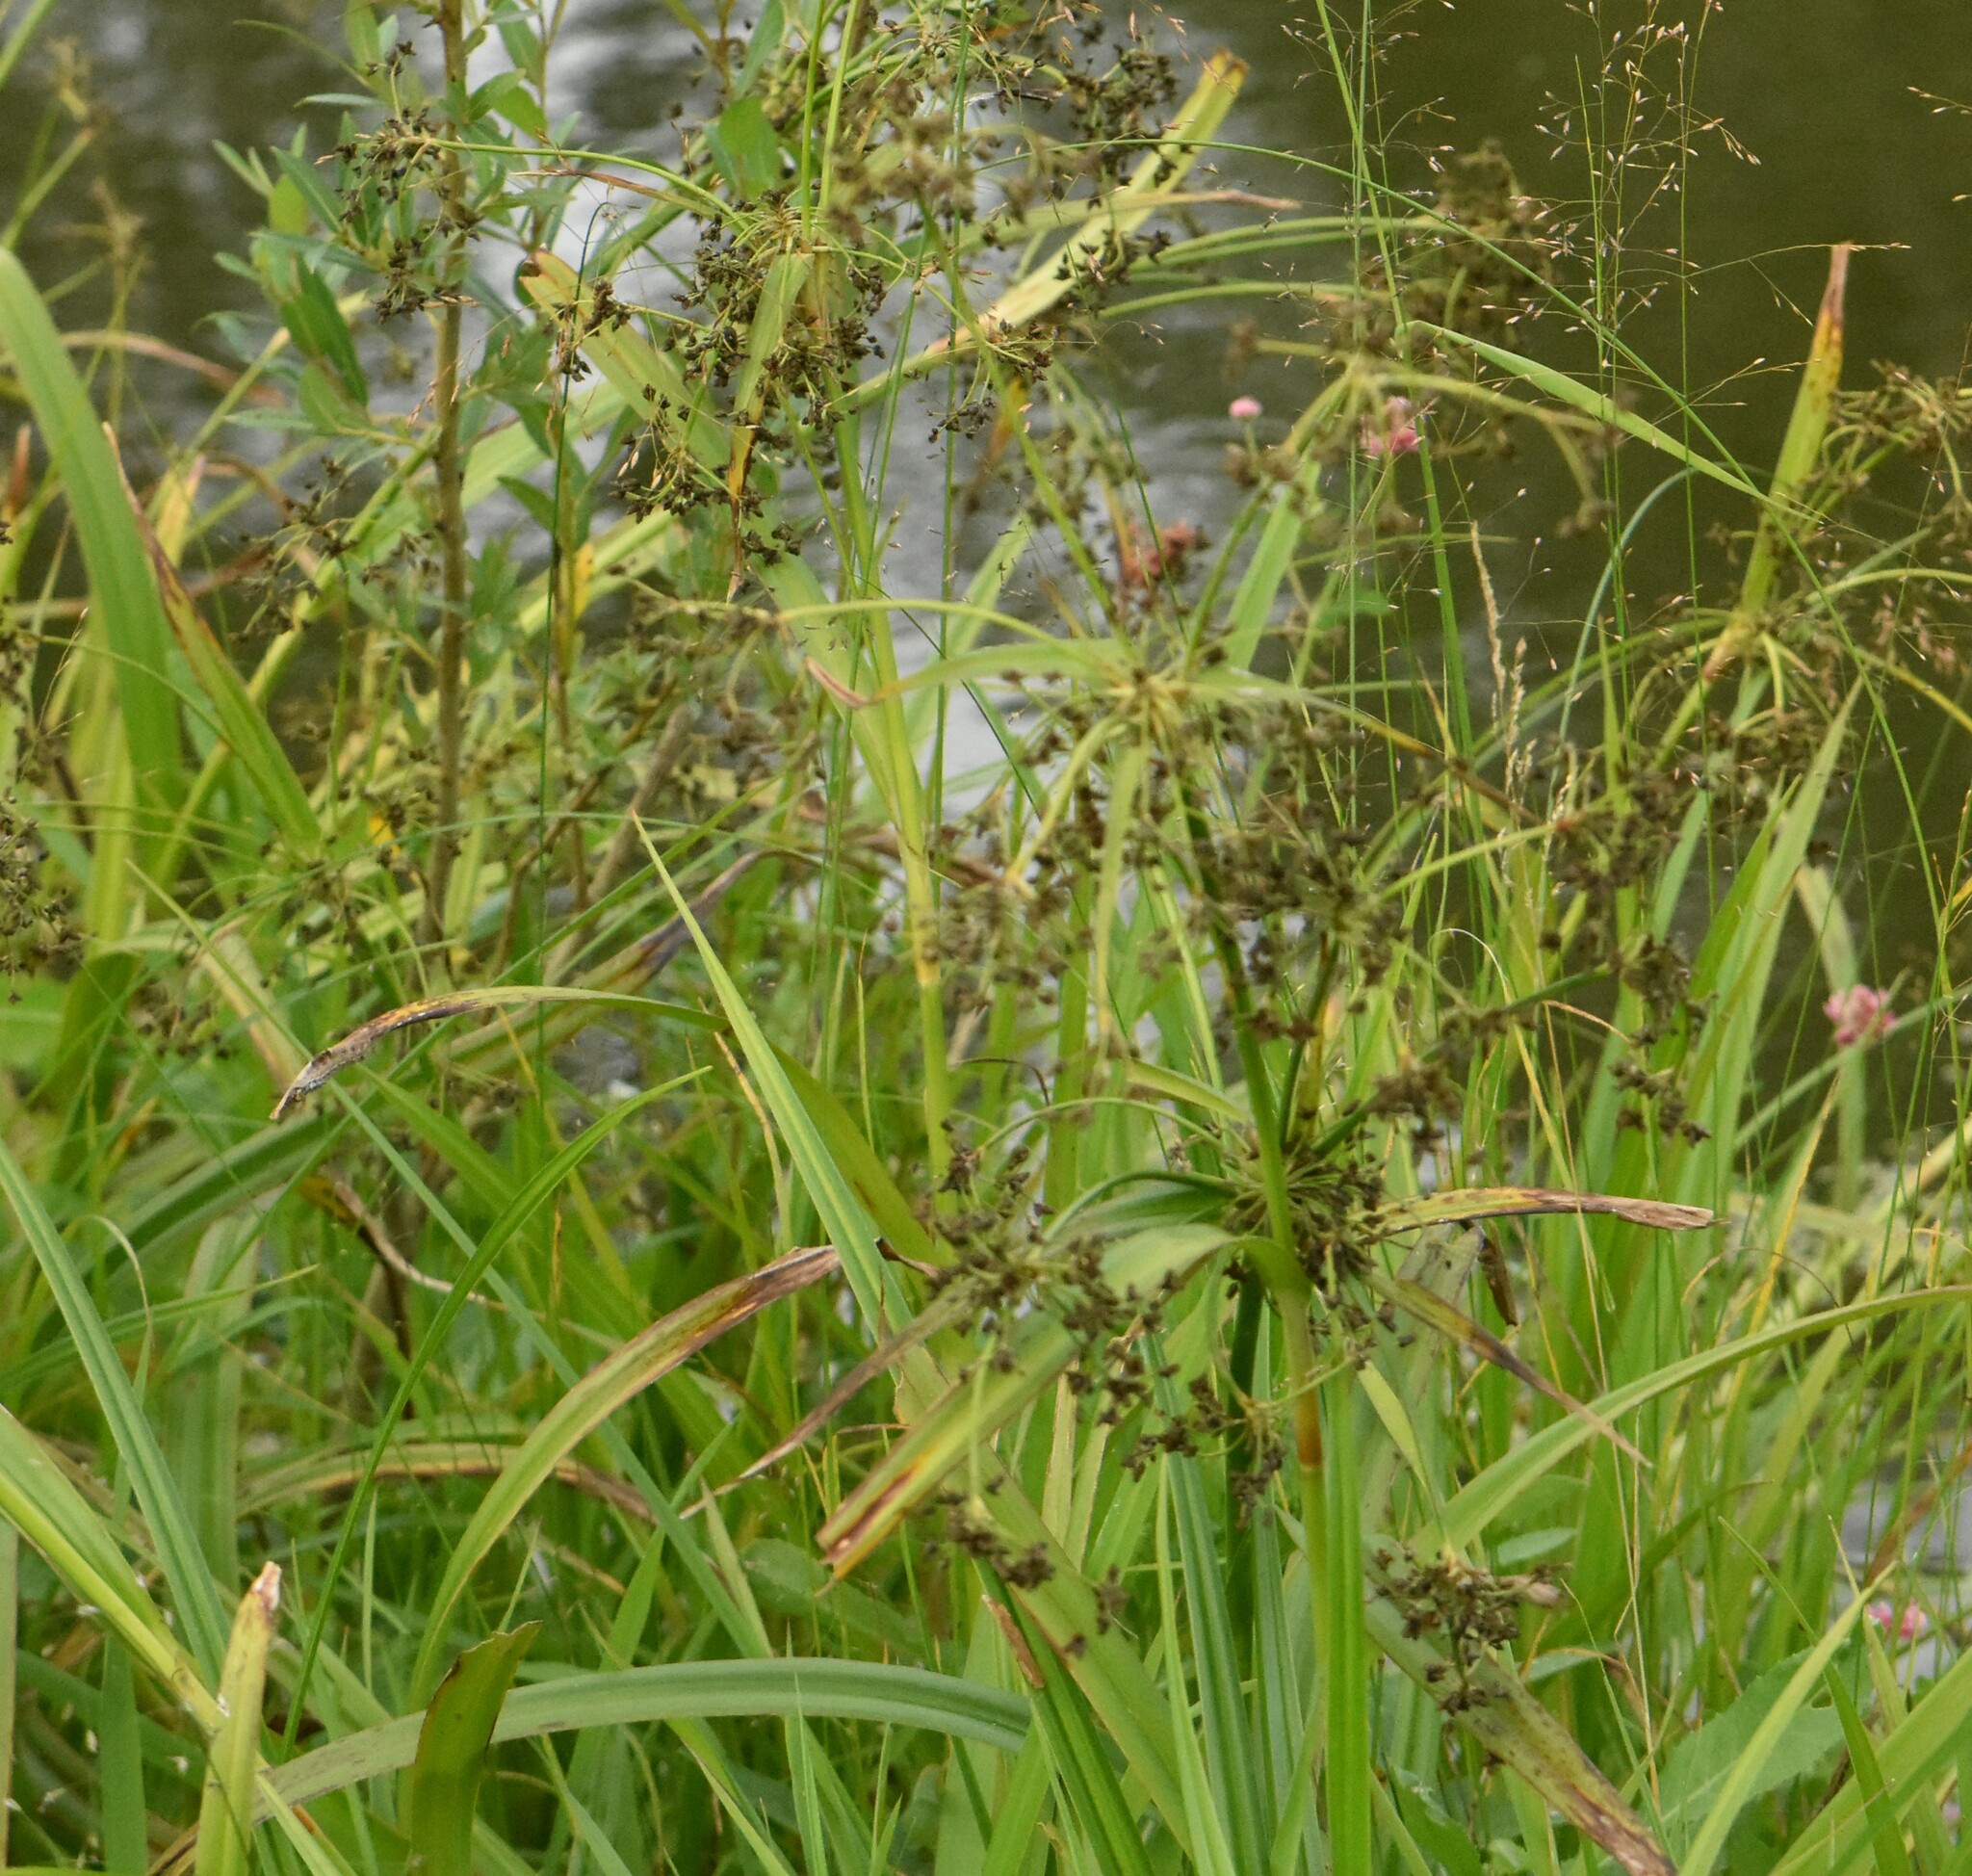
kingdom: Plantae
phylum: Tracheophyta
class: Liliopsida
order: Poales
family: Cyperaceae
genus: Scirpus
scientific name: Scirpus sylvaticus
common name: Wood club-rush
